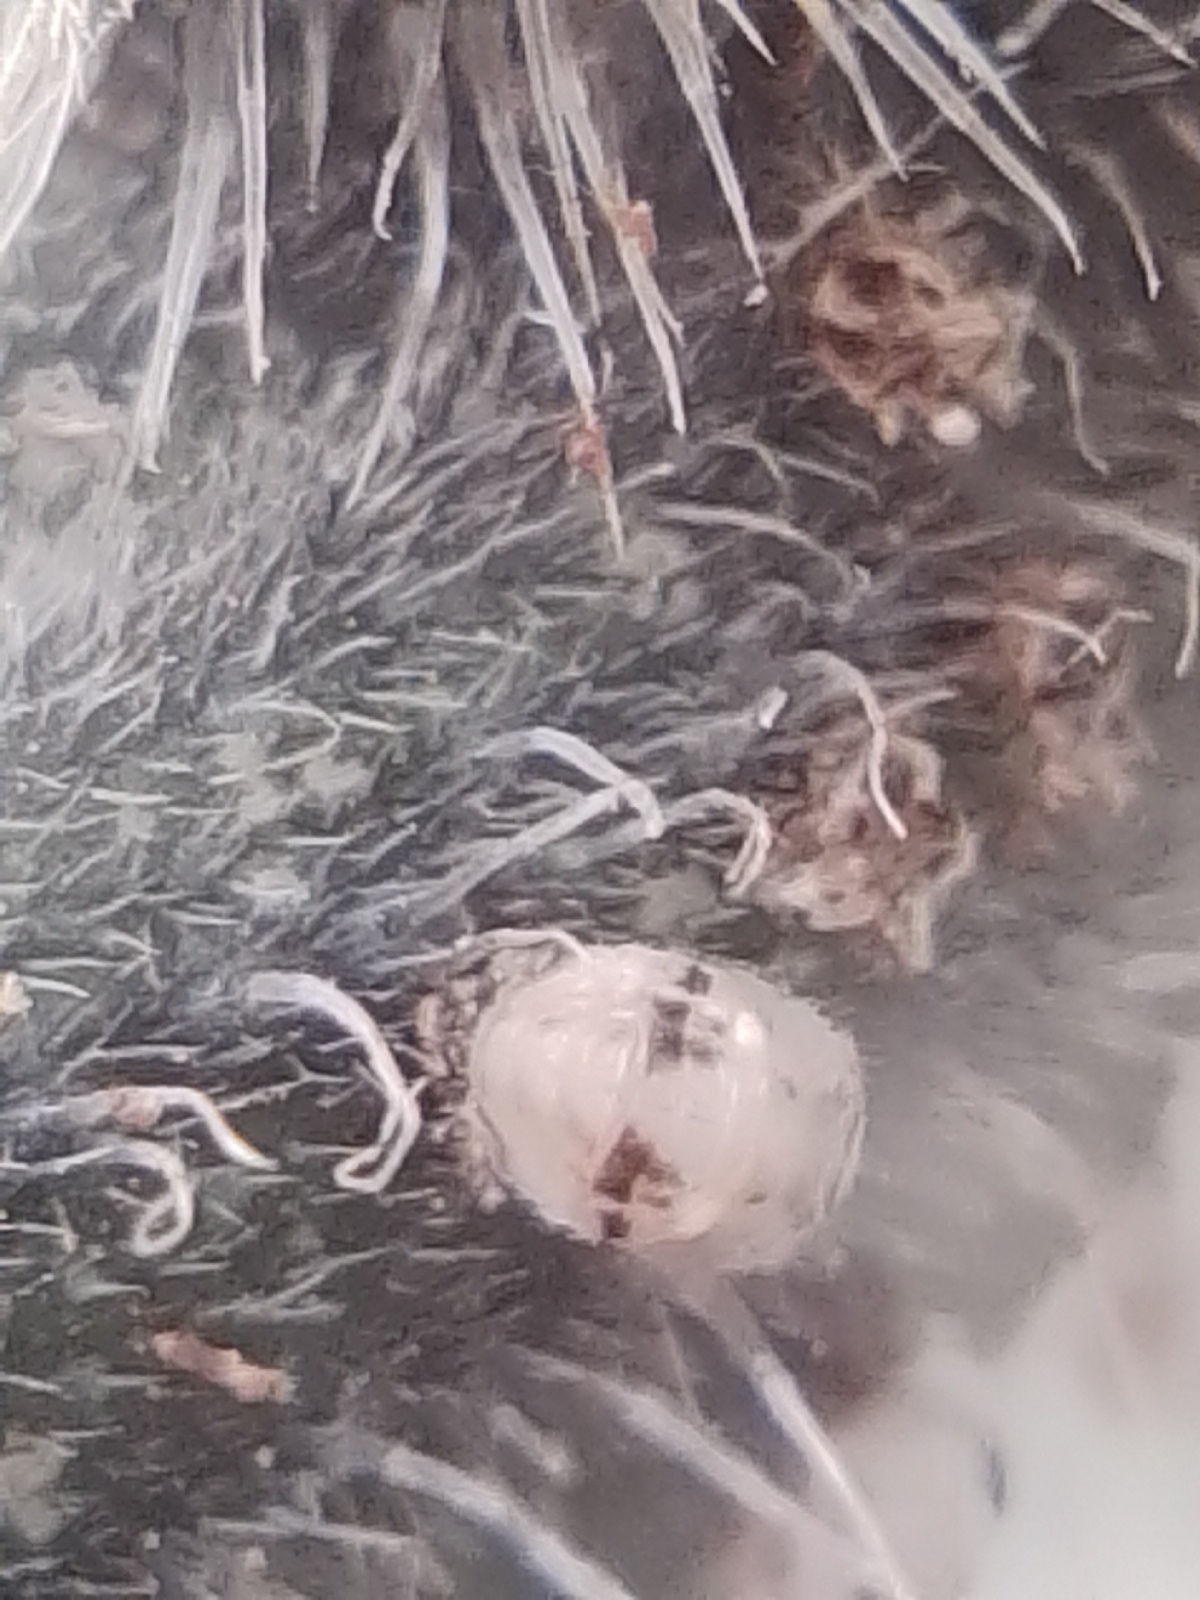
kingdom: Animalia
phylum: Arthropoda
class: Insecta
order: Coleoptera
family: Coccinellidae
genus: Psyllobora
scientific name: Psyllobora
